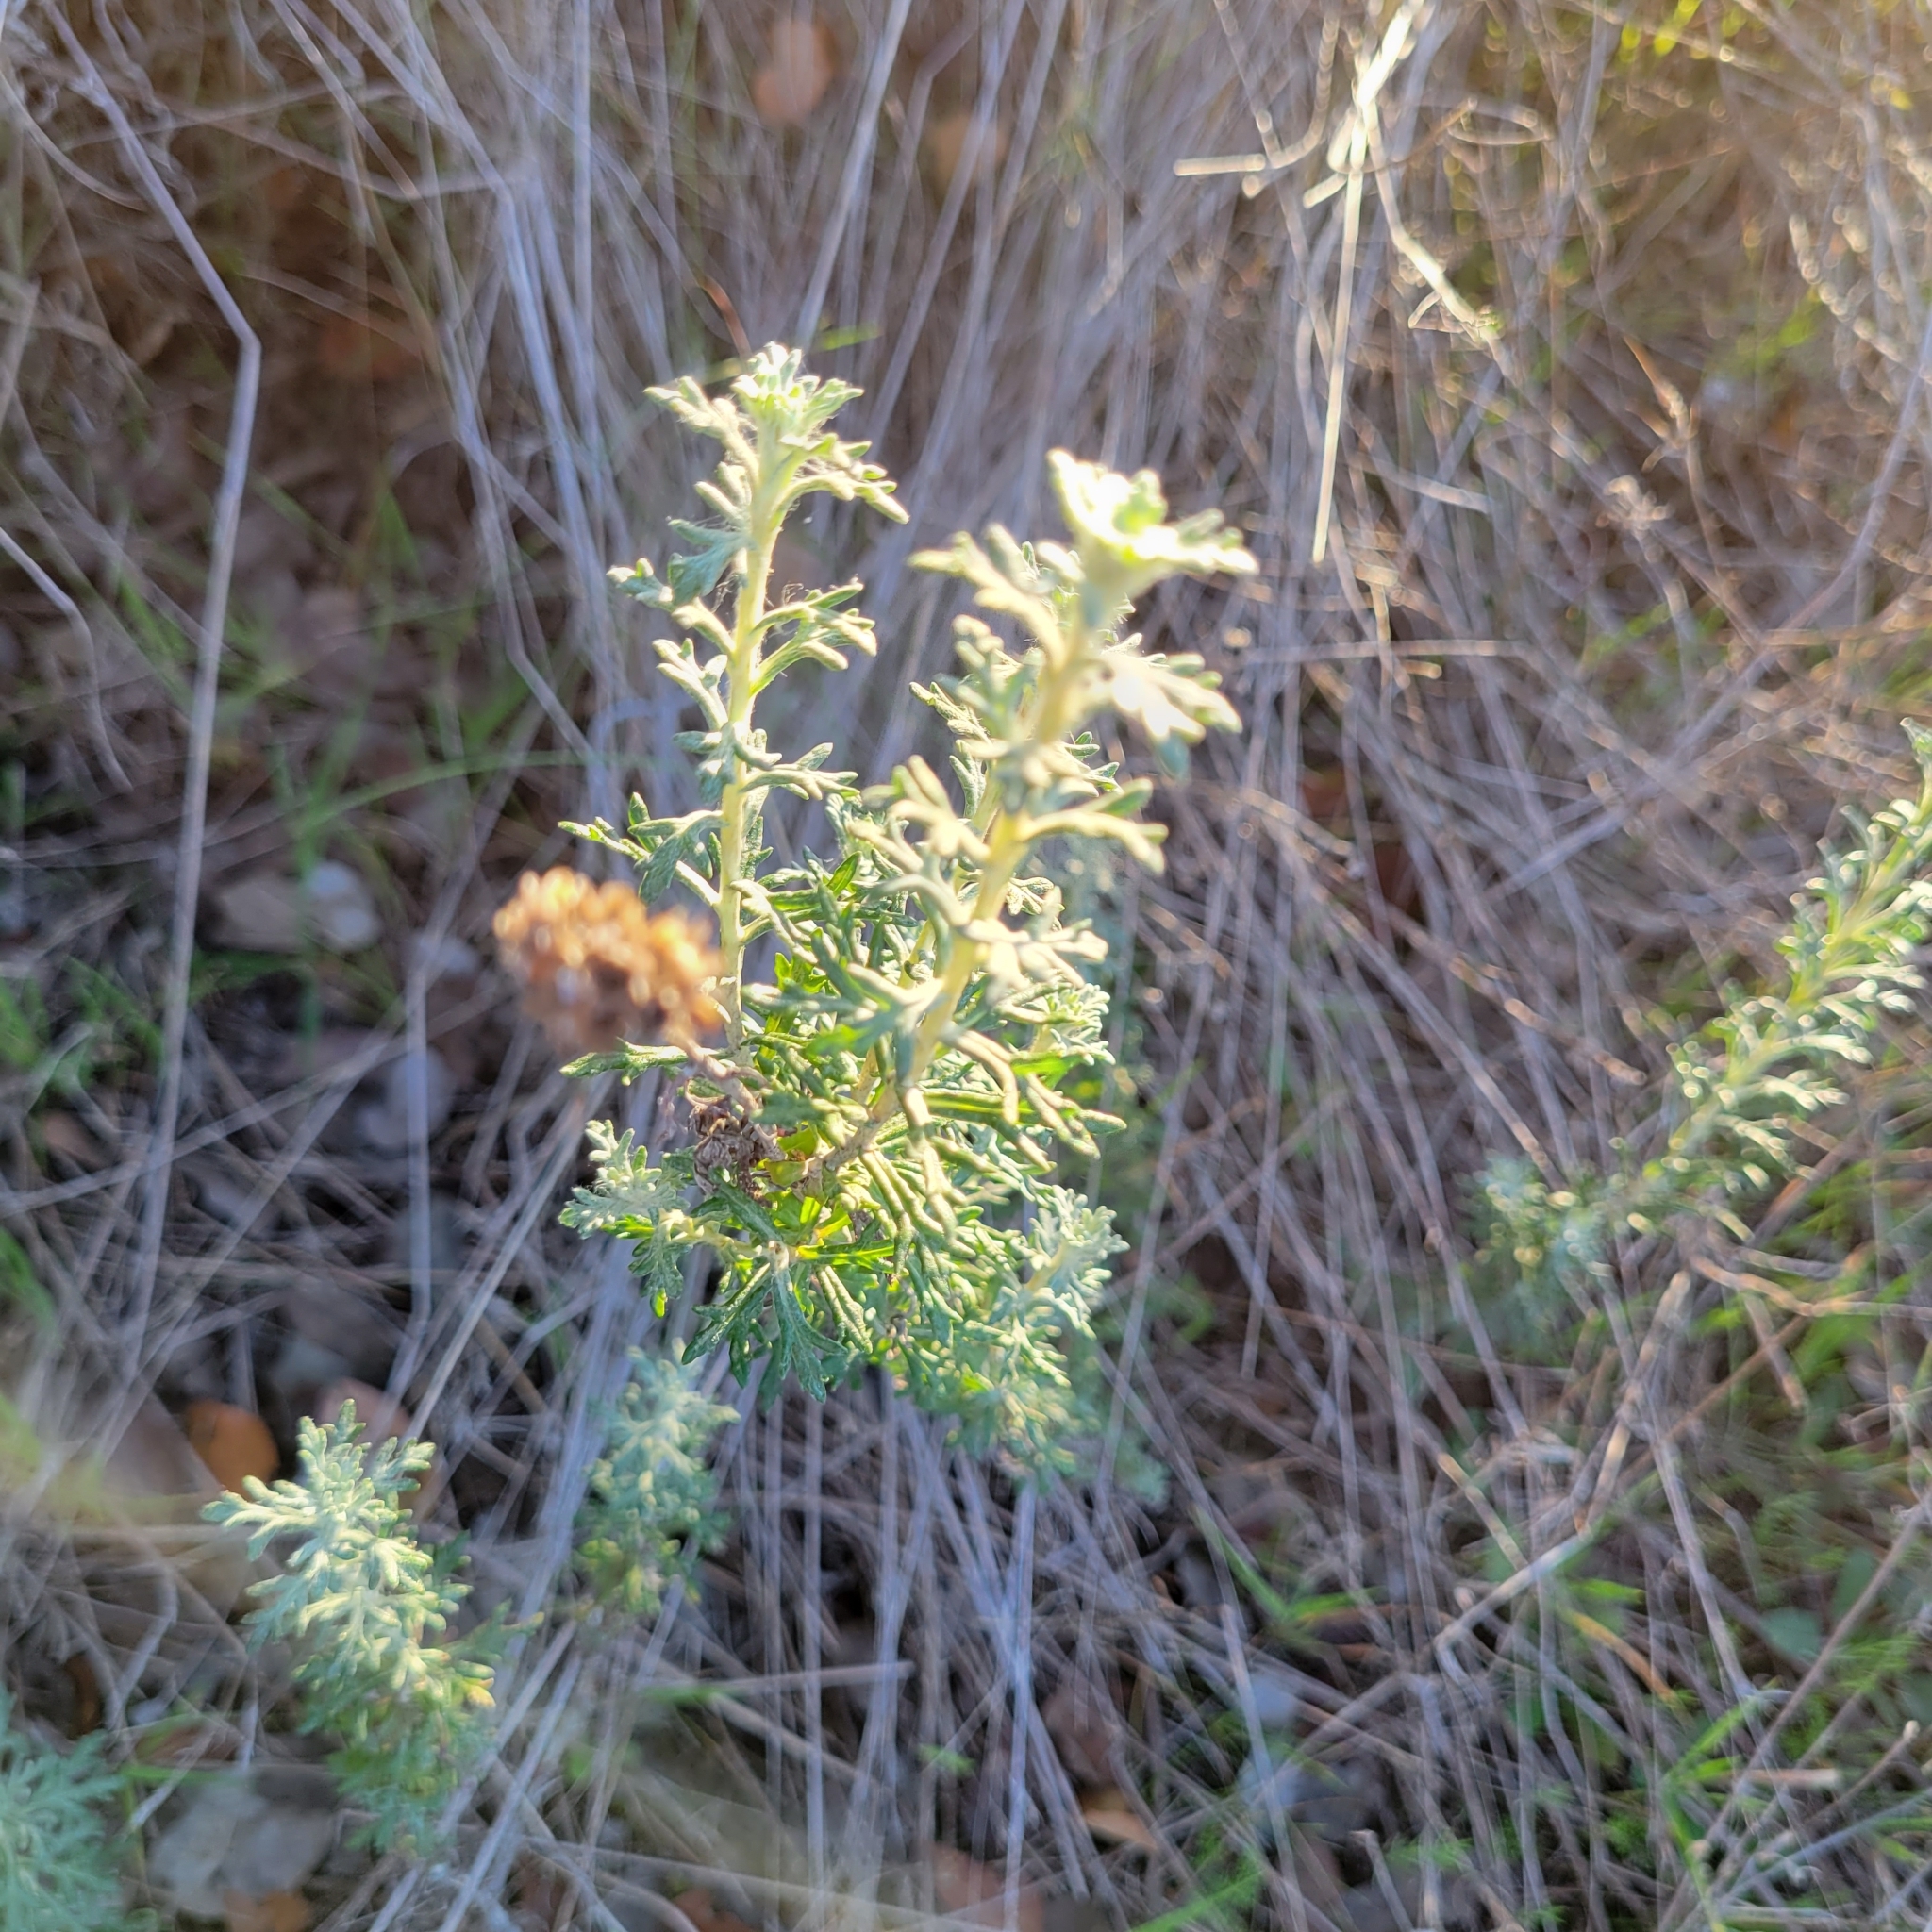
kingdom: Plantae
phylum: Tracheophyta
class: Magnoliopsida
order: Asterales
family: Asteraceae
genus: Eriophyllum
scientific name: Eriophyllum confertiflorum
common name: Golden-yarrow
